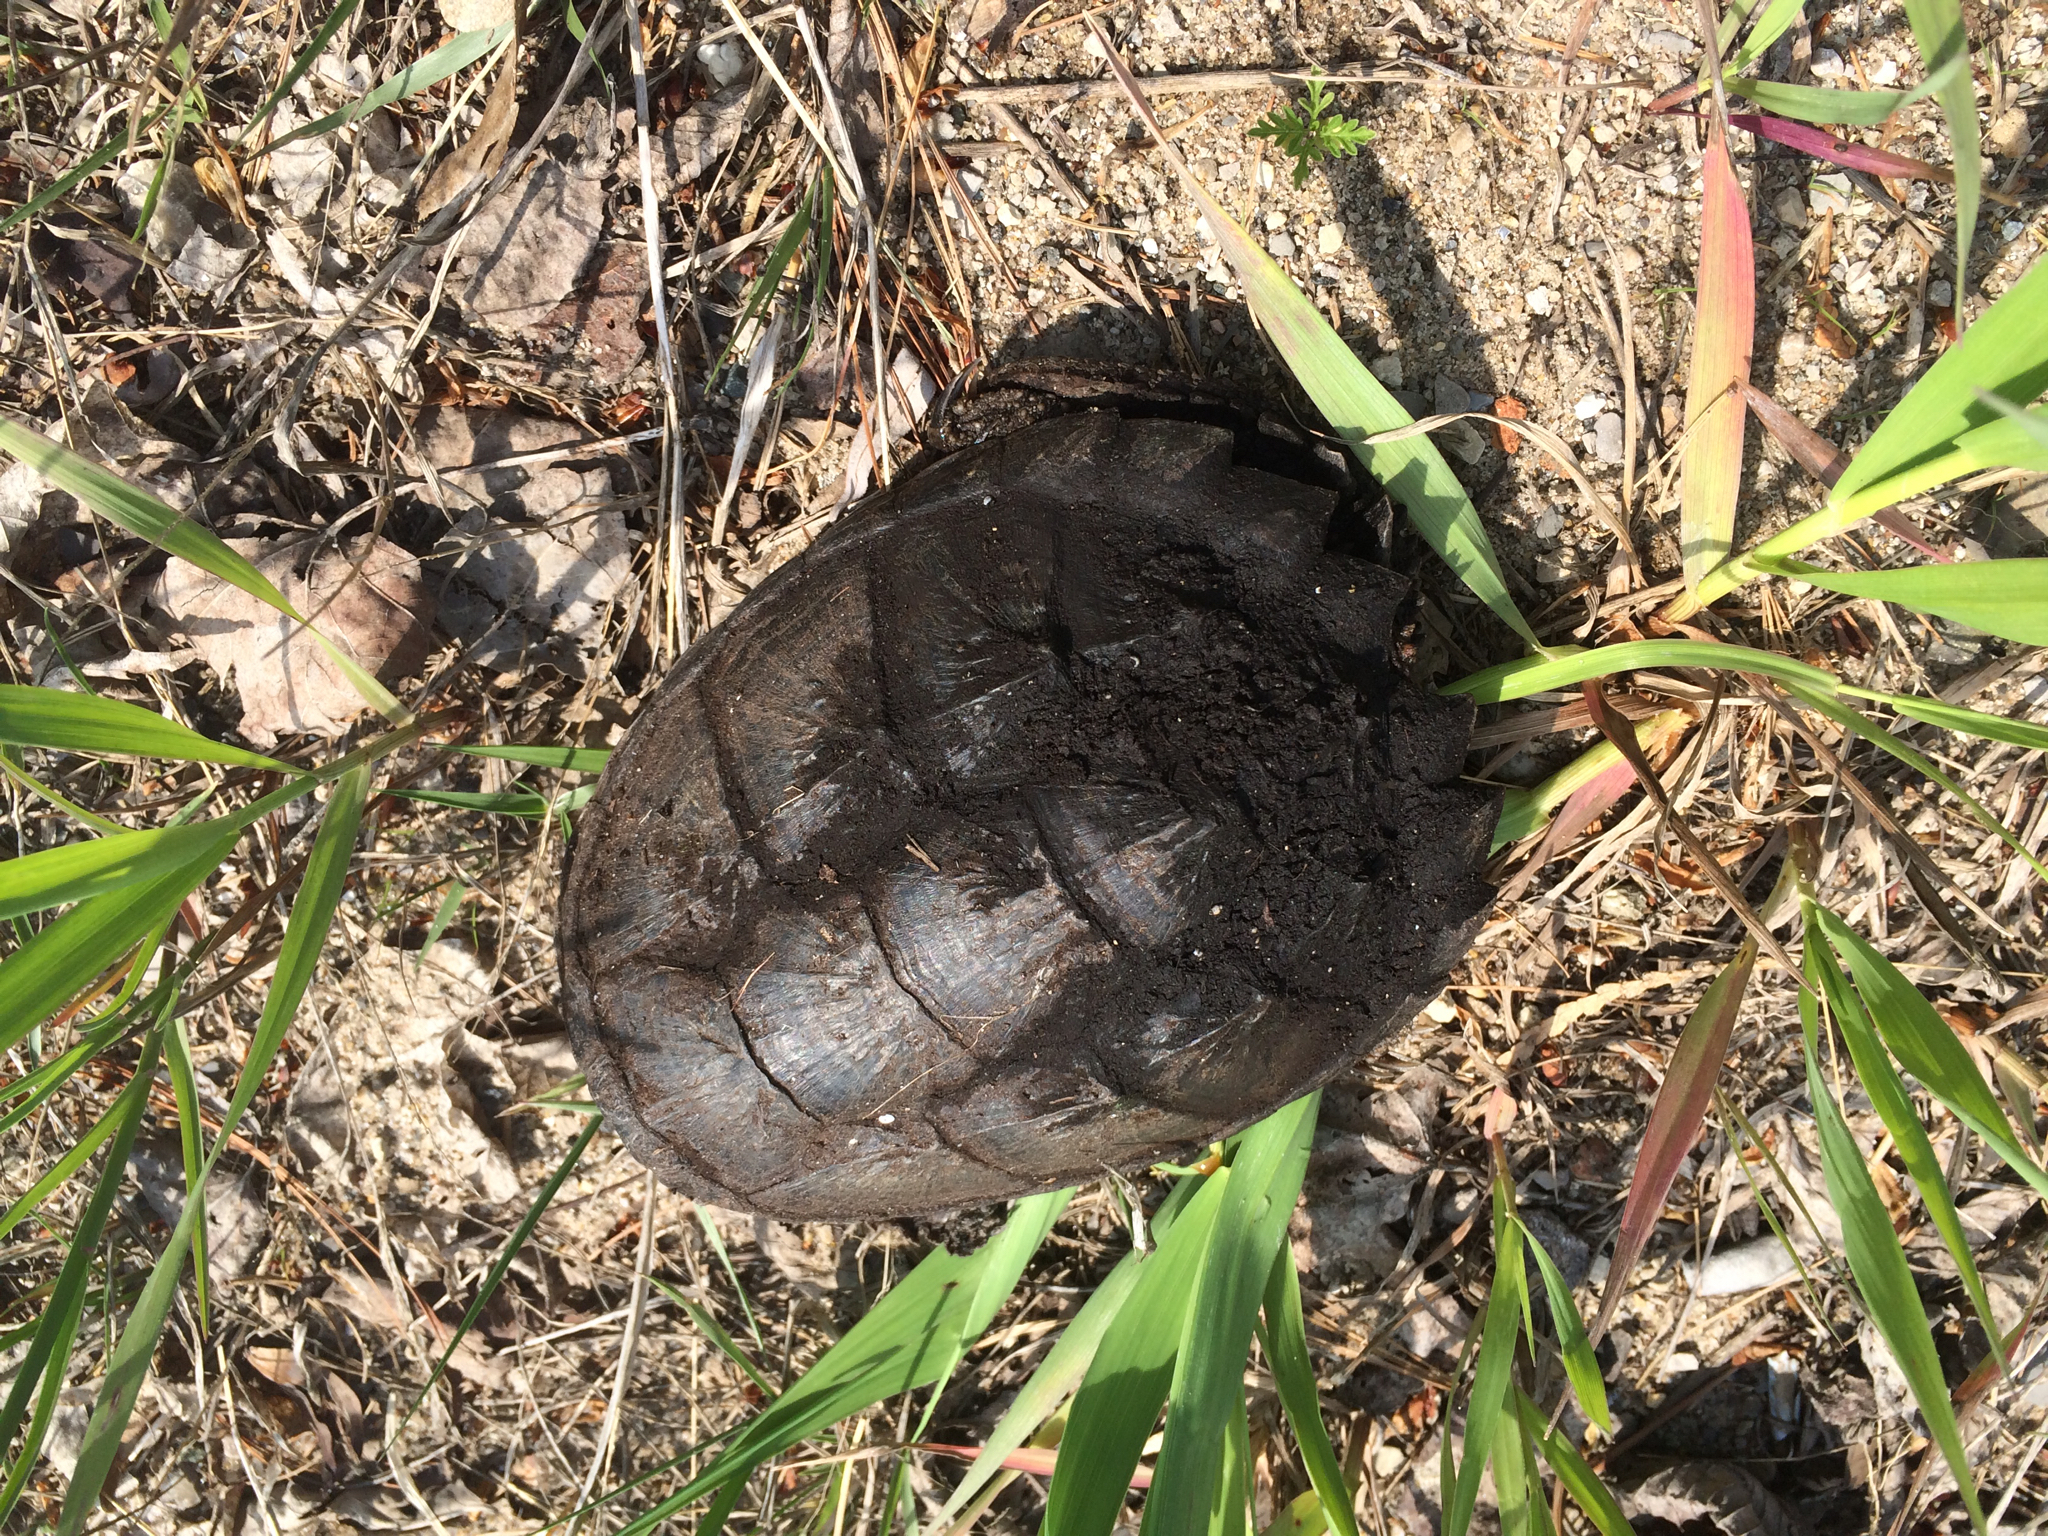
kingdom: Animalia
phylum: Chordata
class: Testudines
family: Chelydridae
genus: Chelydra
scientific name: Chelydra serpentina
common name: Common snapping turtle
